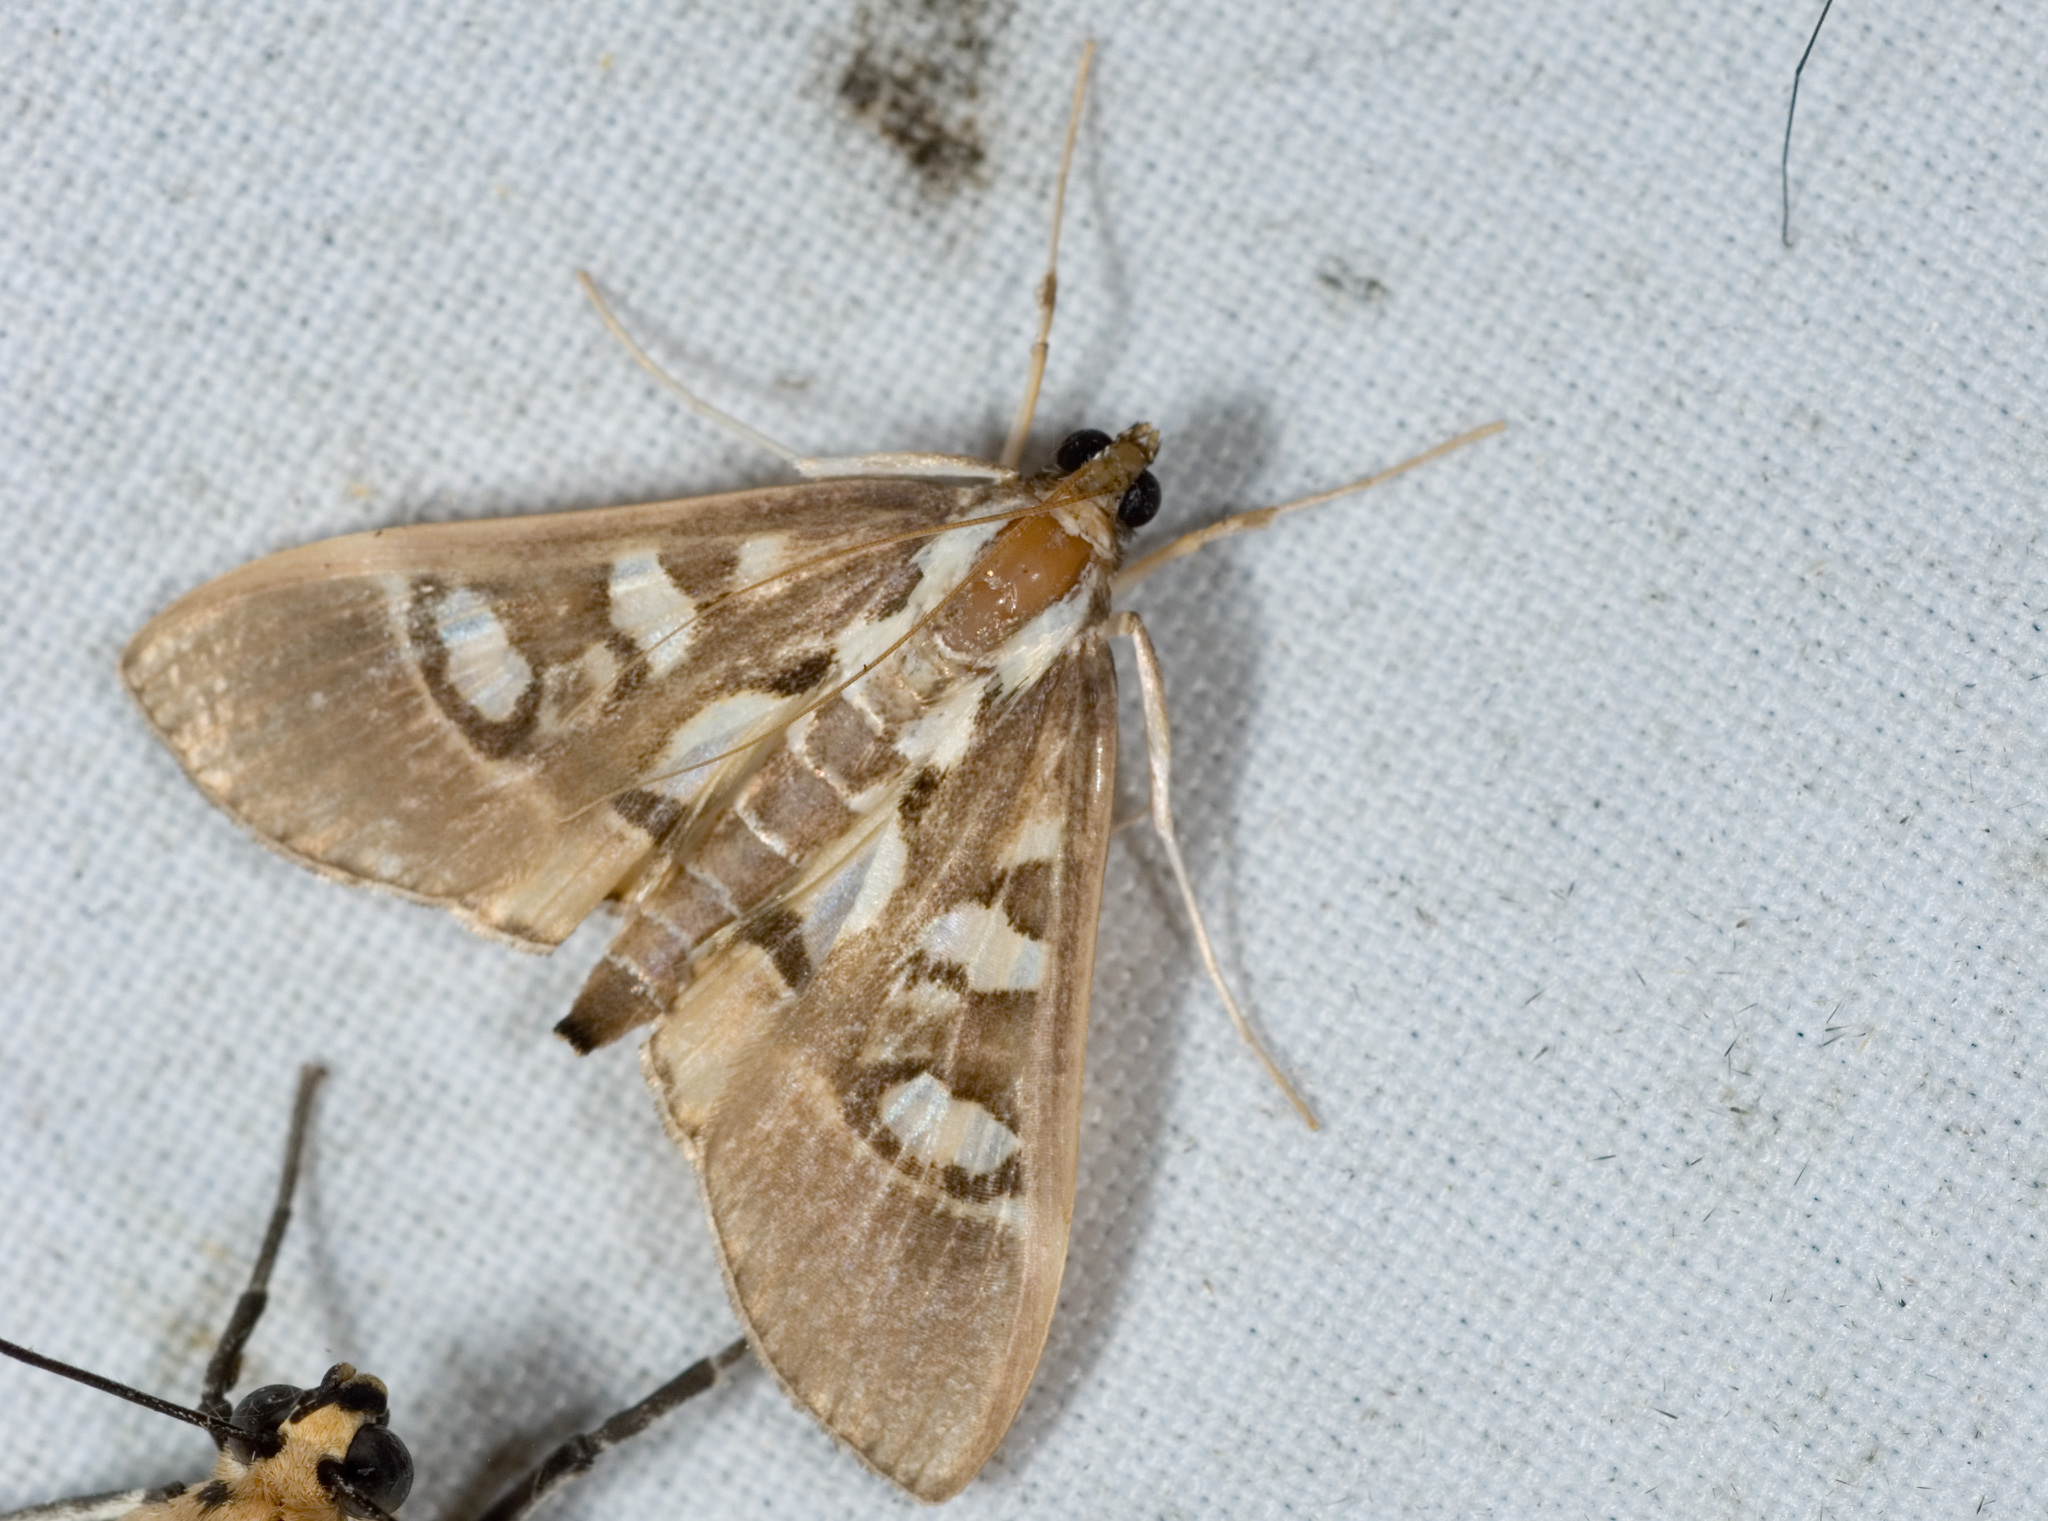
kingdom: Animalia
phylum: Arthropoda
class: Insecta
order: Lepidoptera
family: Crambidae
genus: Glyphodes
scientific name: Glyphodes crithealis
